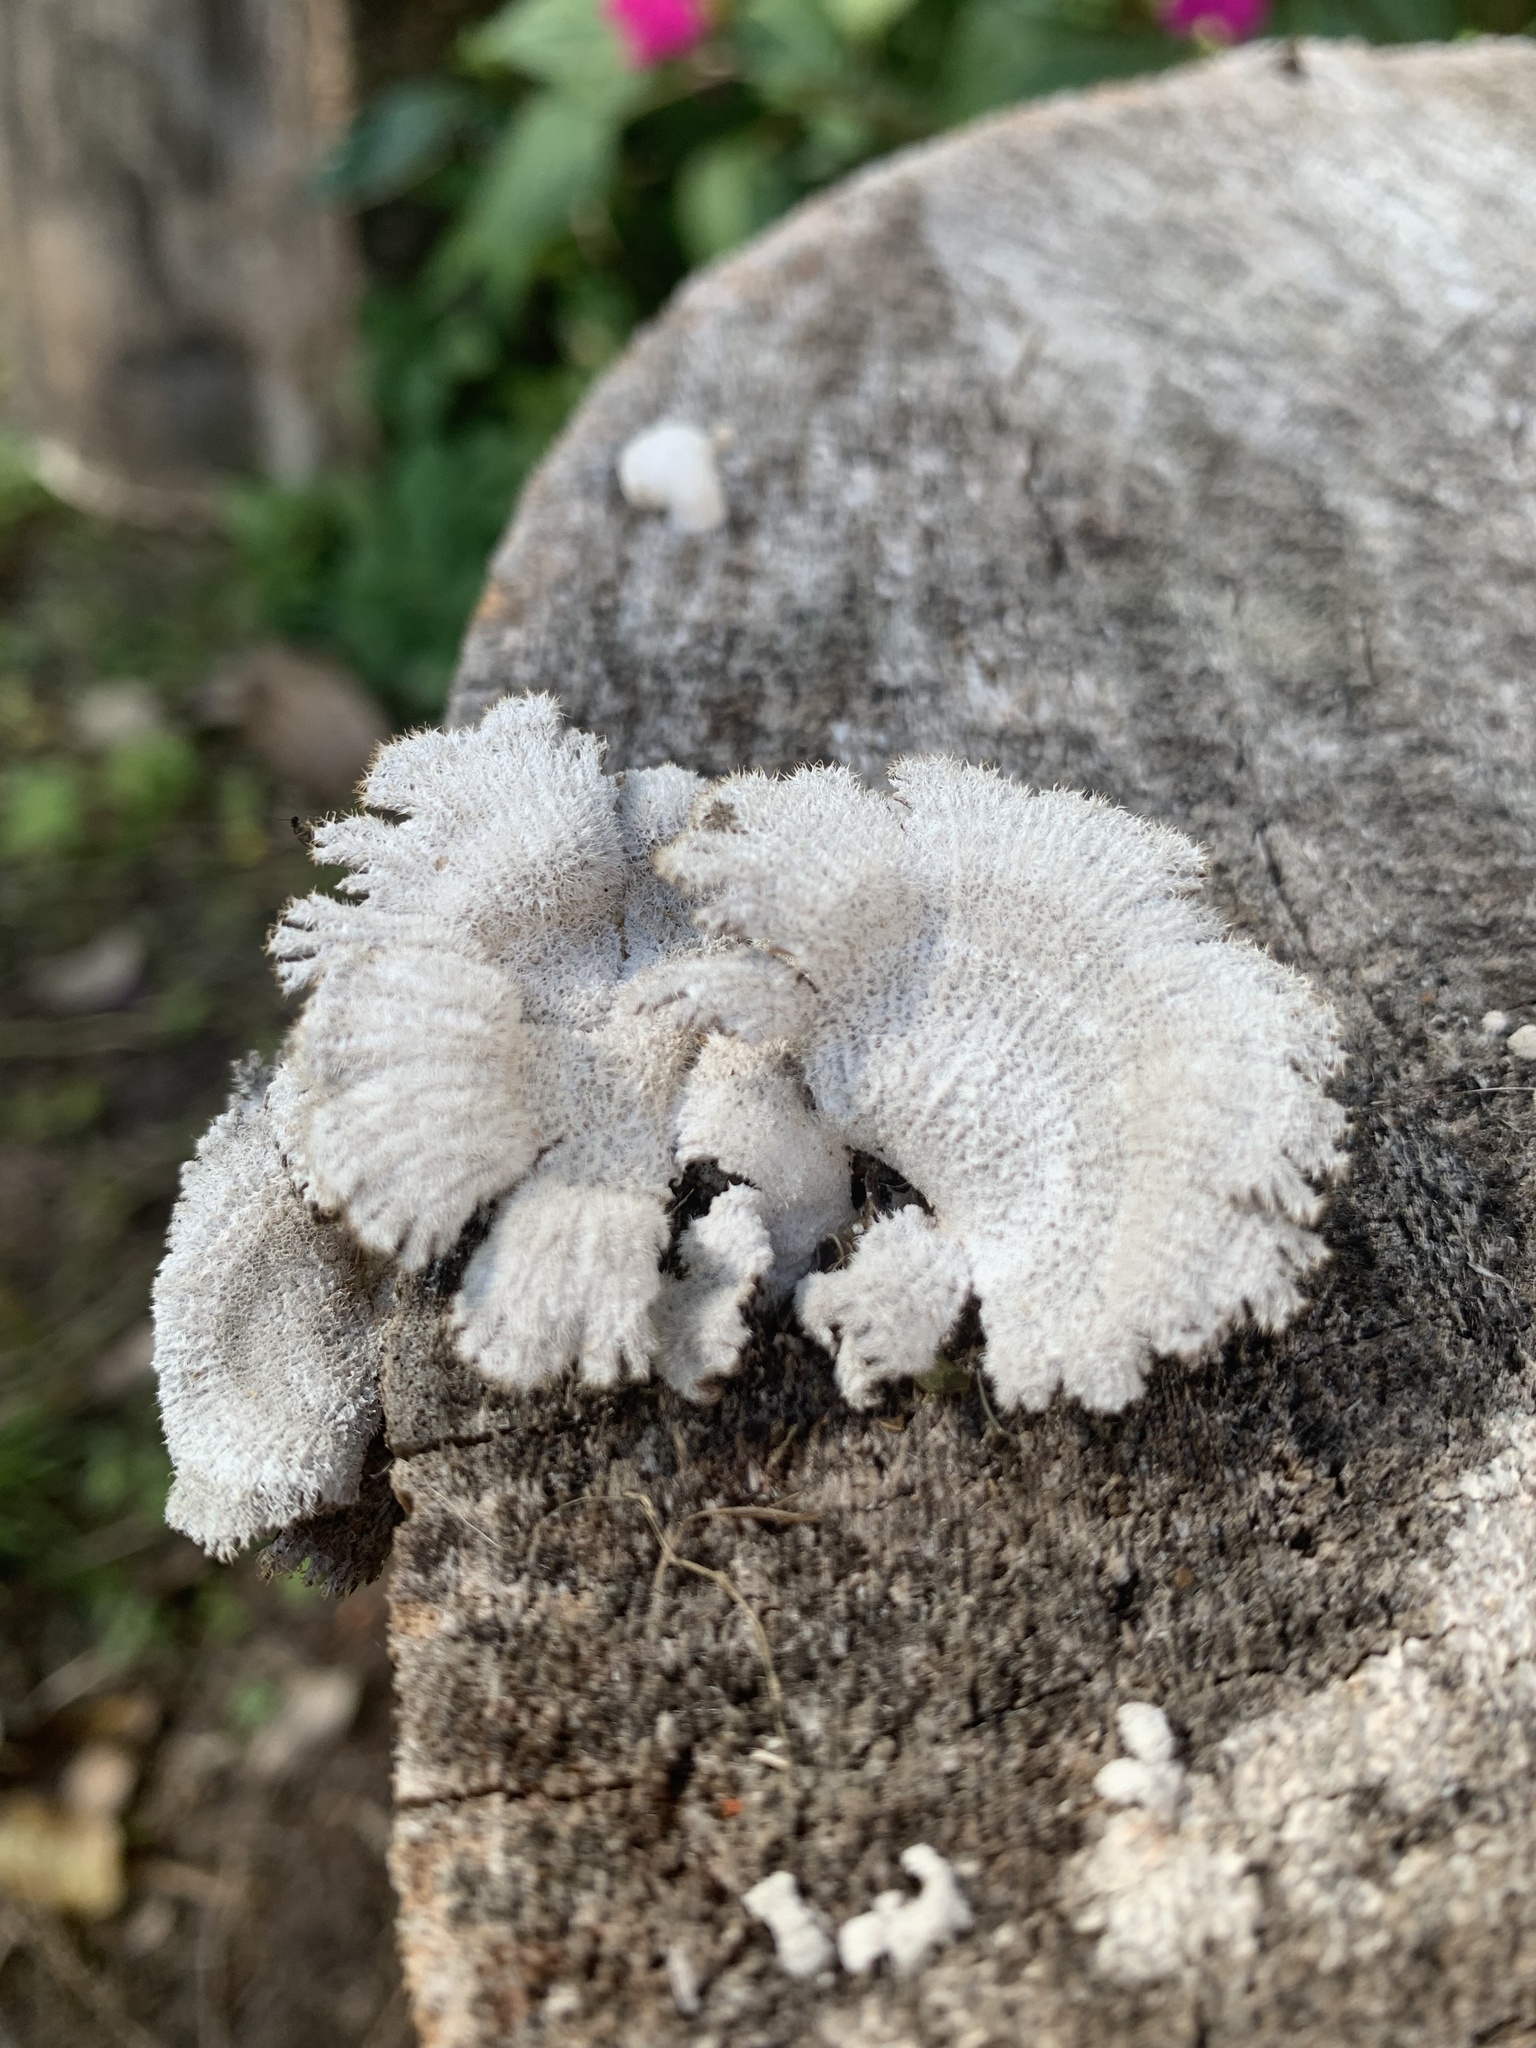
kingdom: Fungi
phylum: Basidiomycota
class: Agaricomycetes
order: Agaricales
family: Schizophyllaceae
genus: Schizophyllum
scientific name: Schizophyllum commune
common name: Common porecrust
